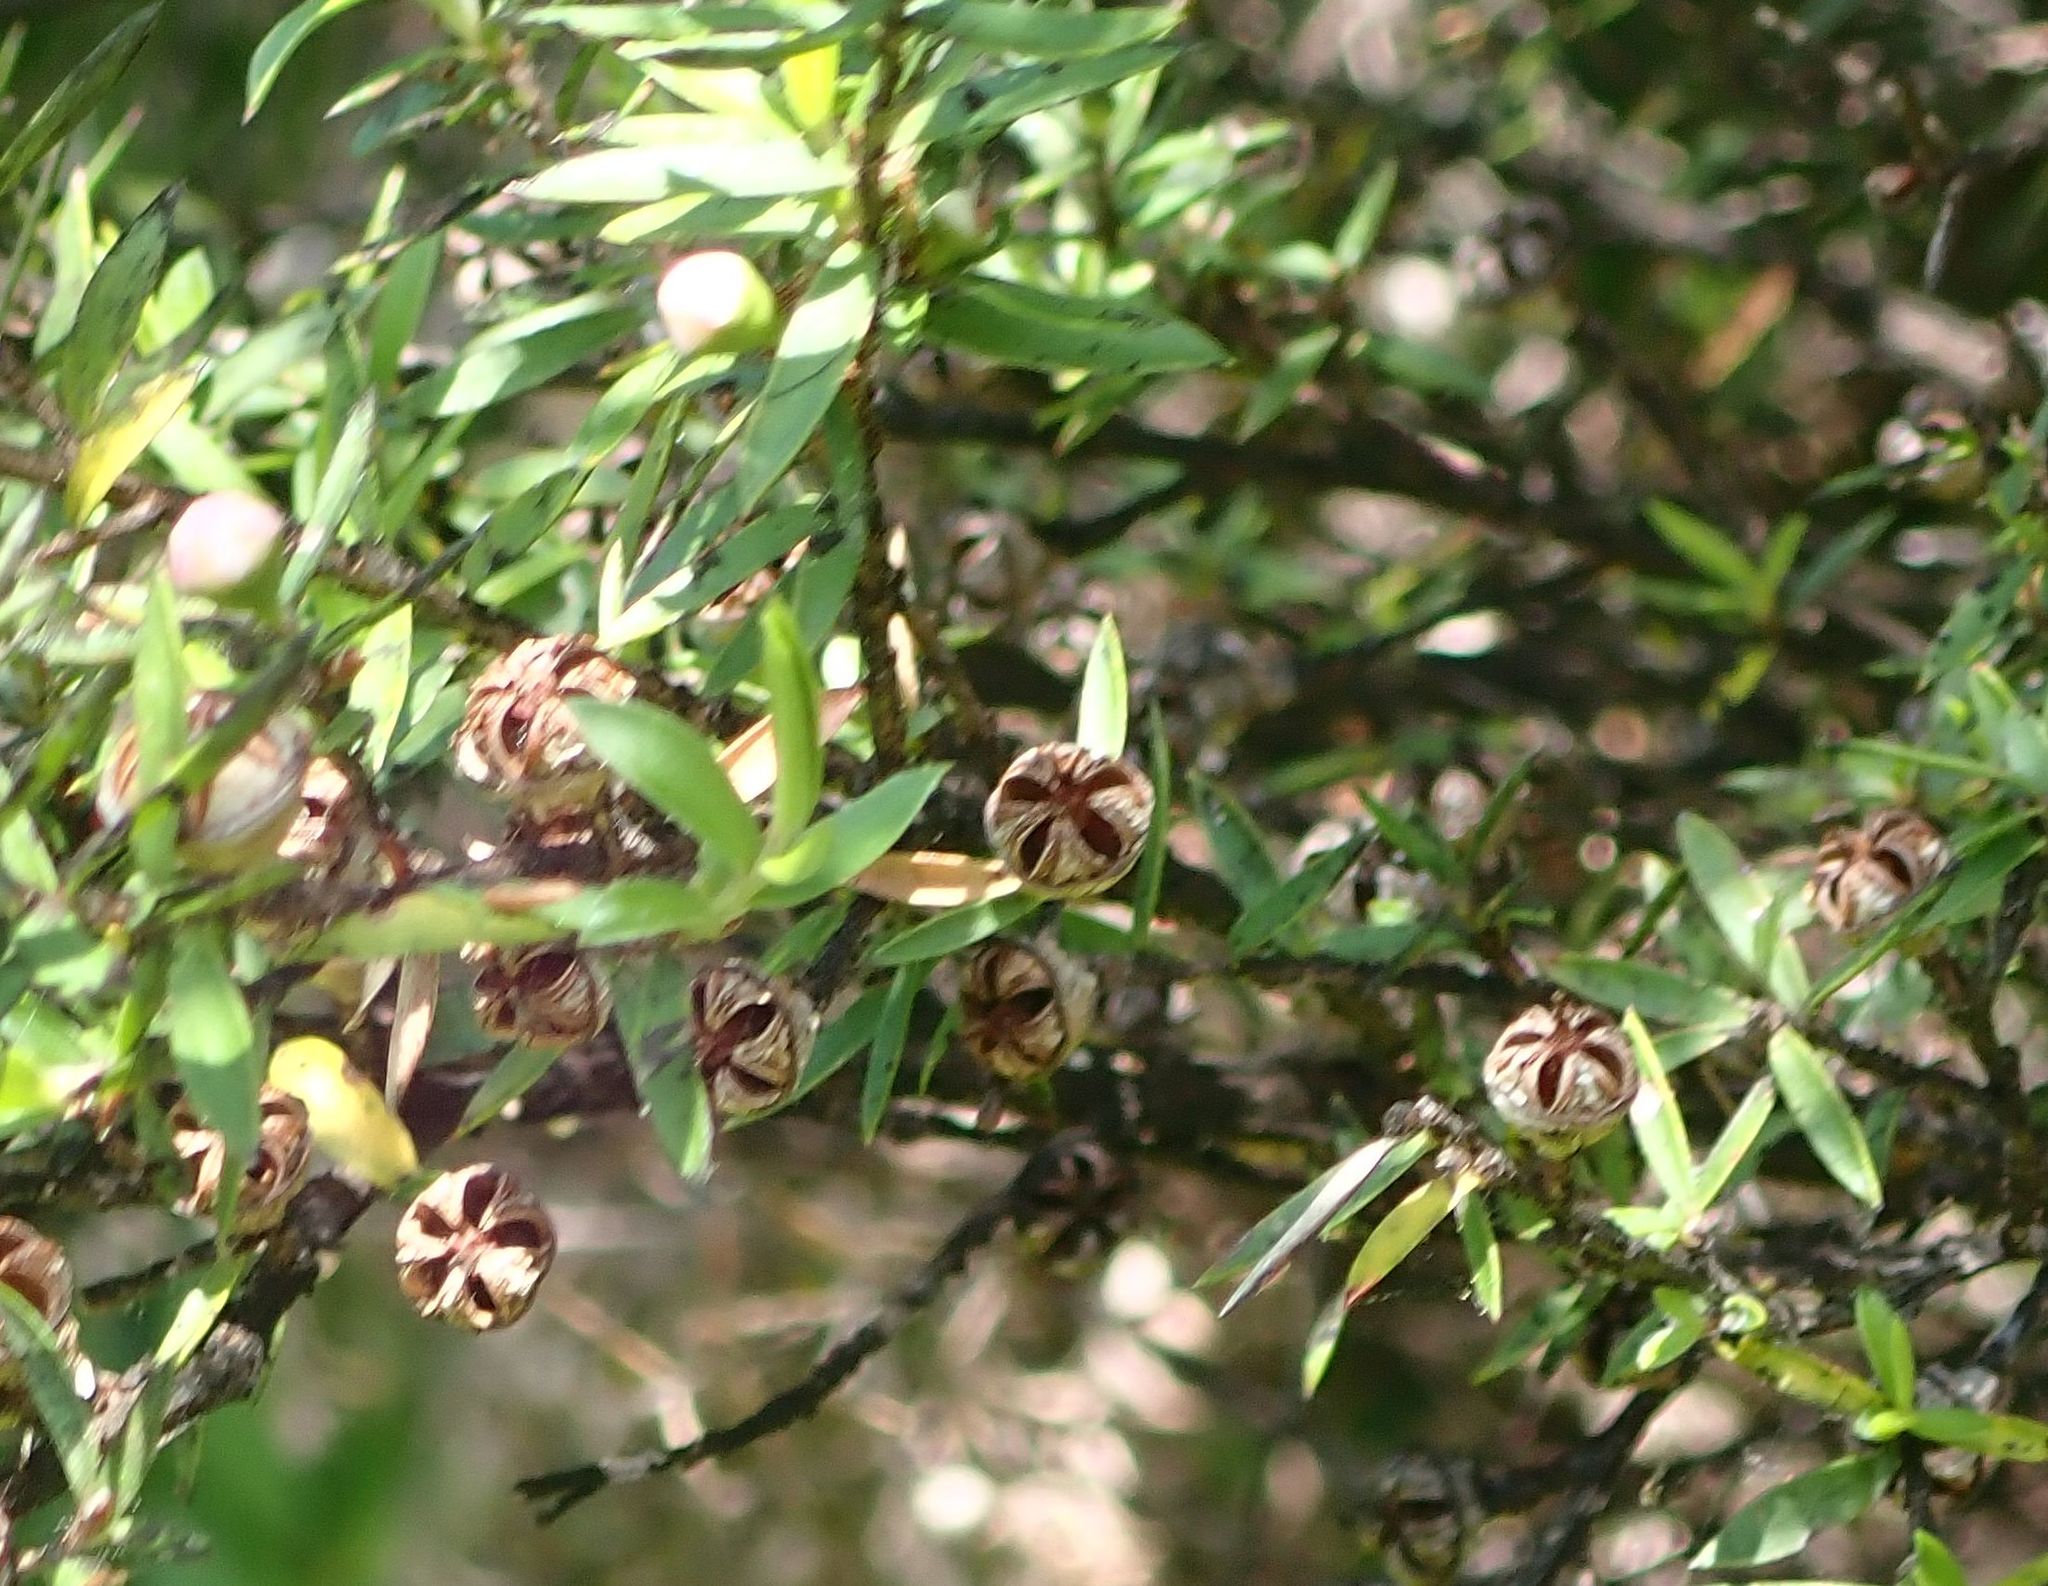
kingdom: Plantae
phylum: Tracheophyta
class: Magnoliopsida
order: Myrtales
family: Myrtaceae
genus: Leptospermum
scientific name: Leptospermum scoparium
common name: Broom tea-tree
